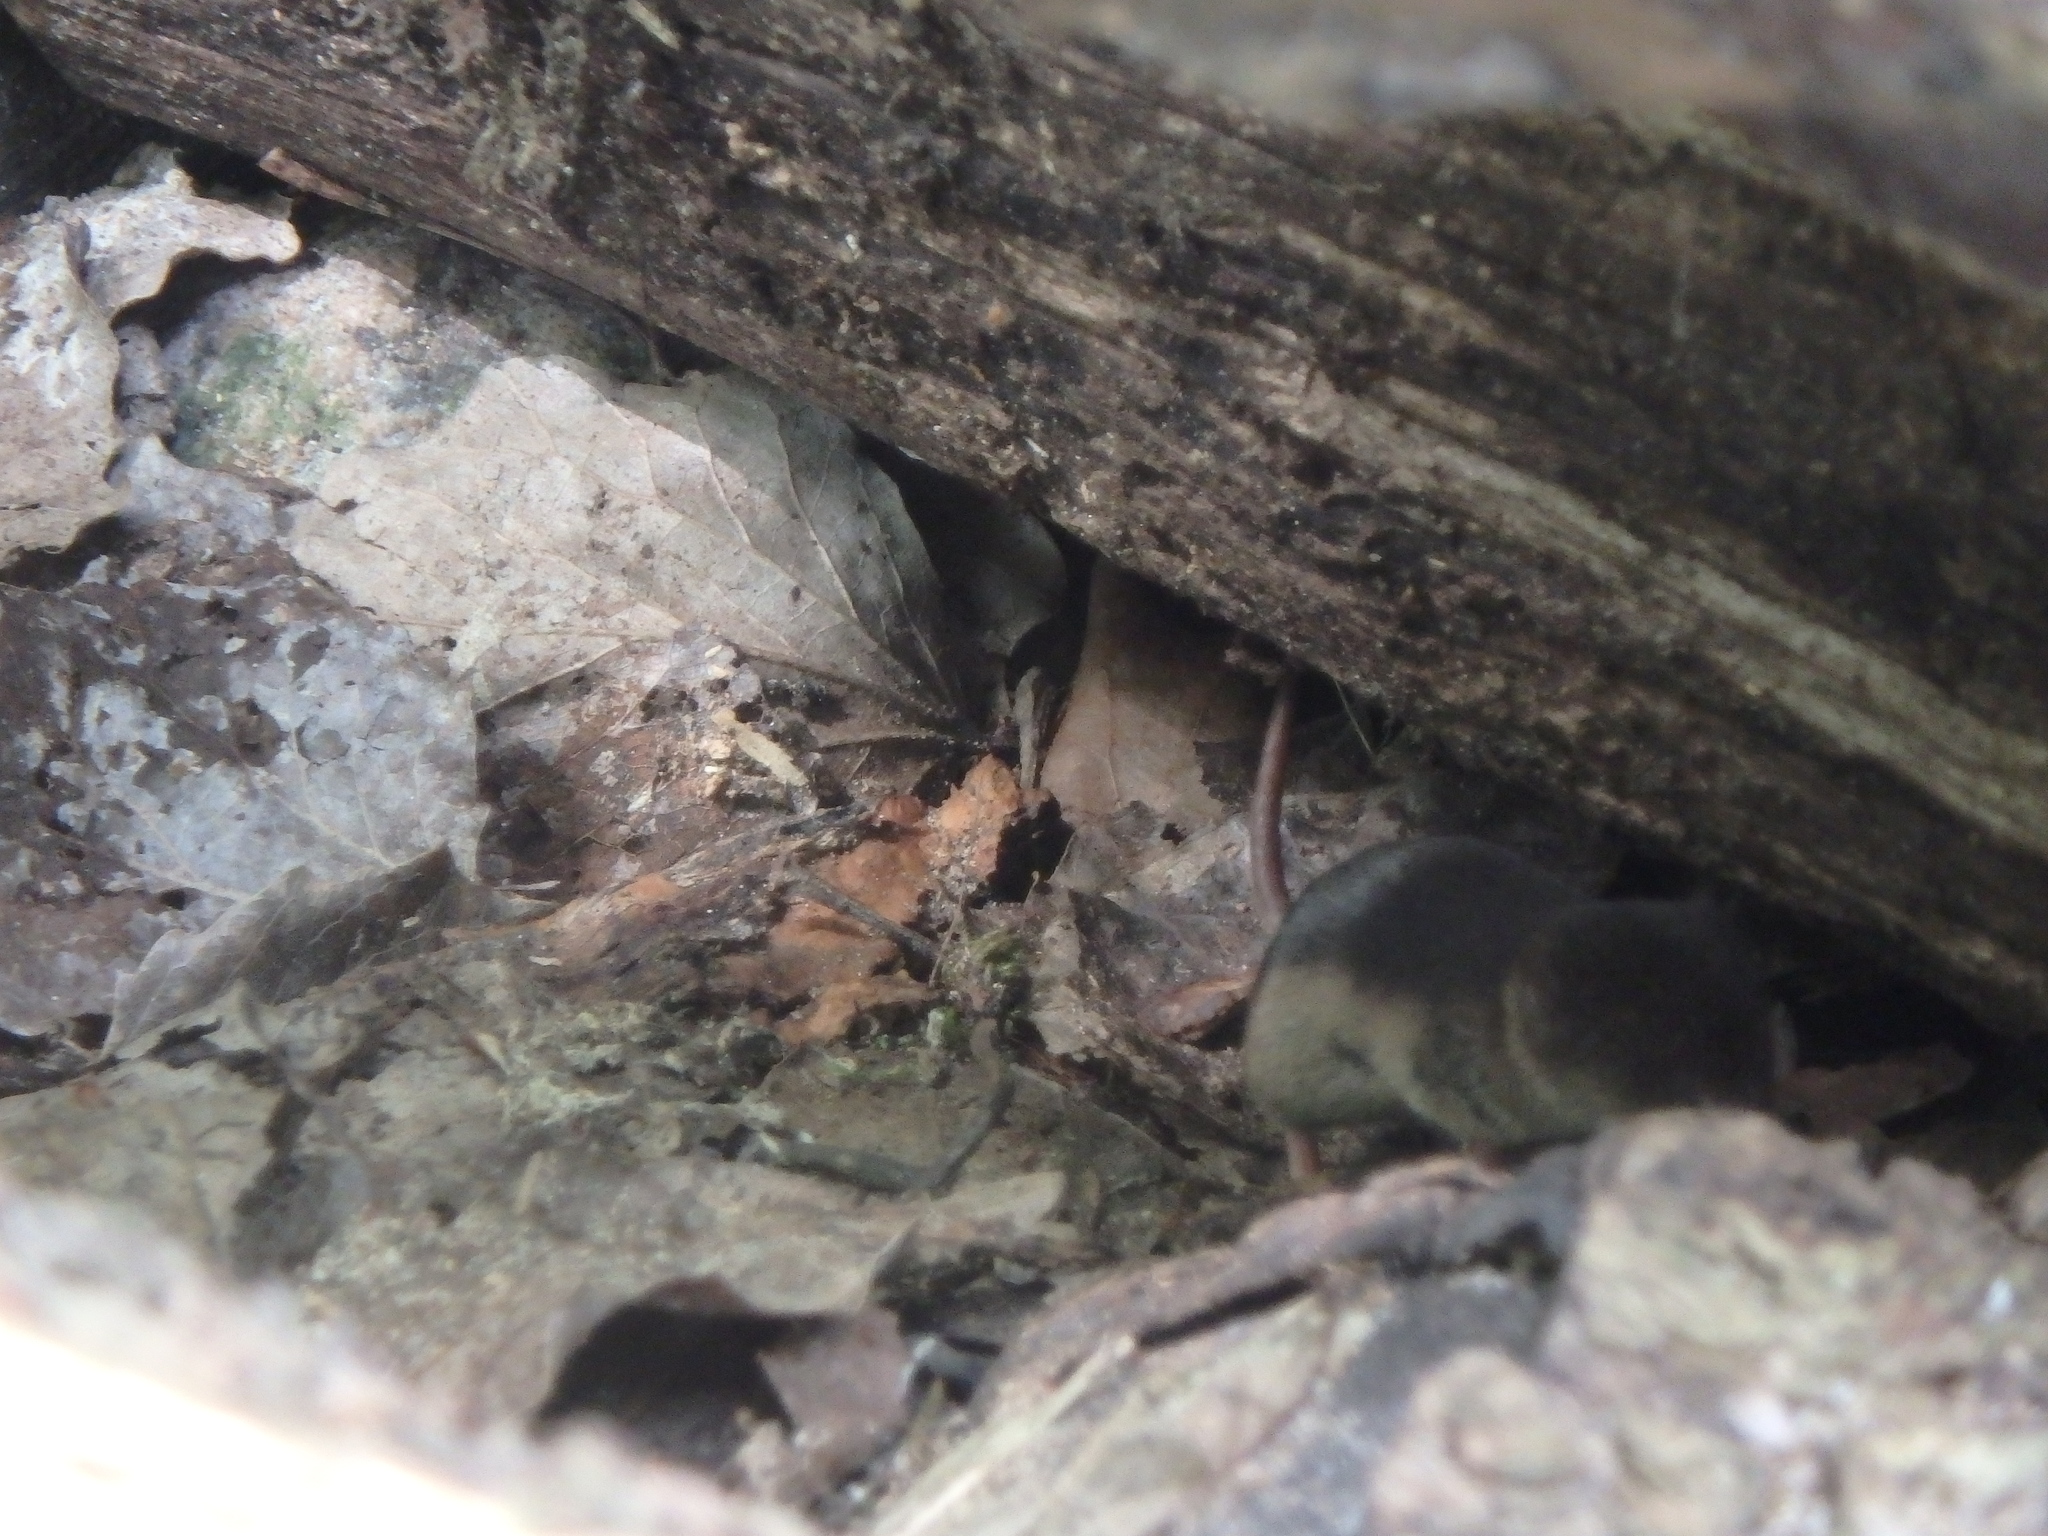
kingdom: Animalia
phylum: Chordata
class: Mammalia
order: Soricomorpha
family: Soricidae
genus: Sorex
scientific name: Sorex araneus
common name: Common shrew
